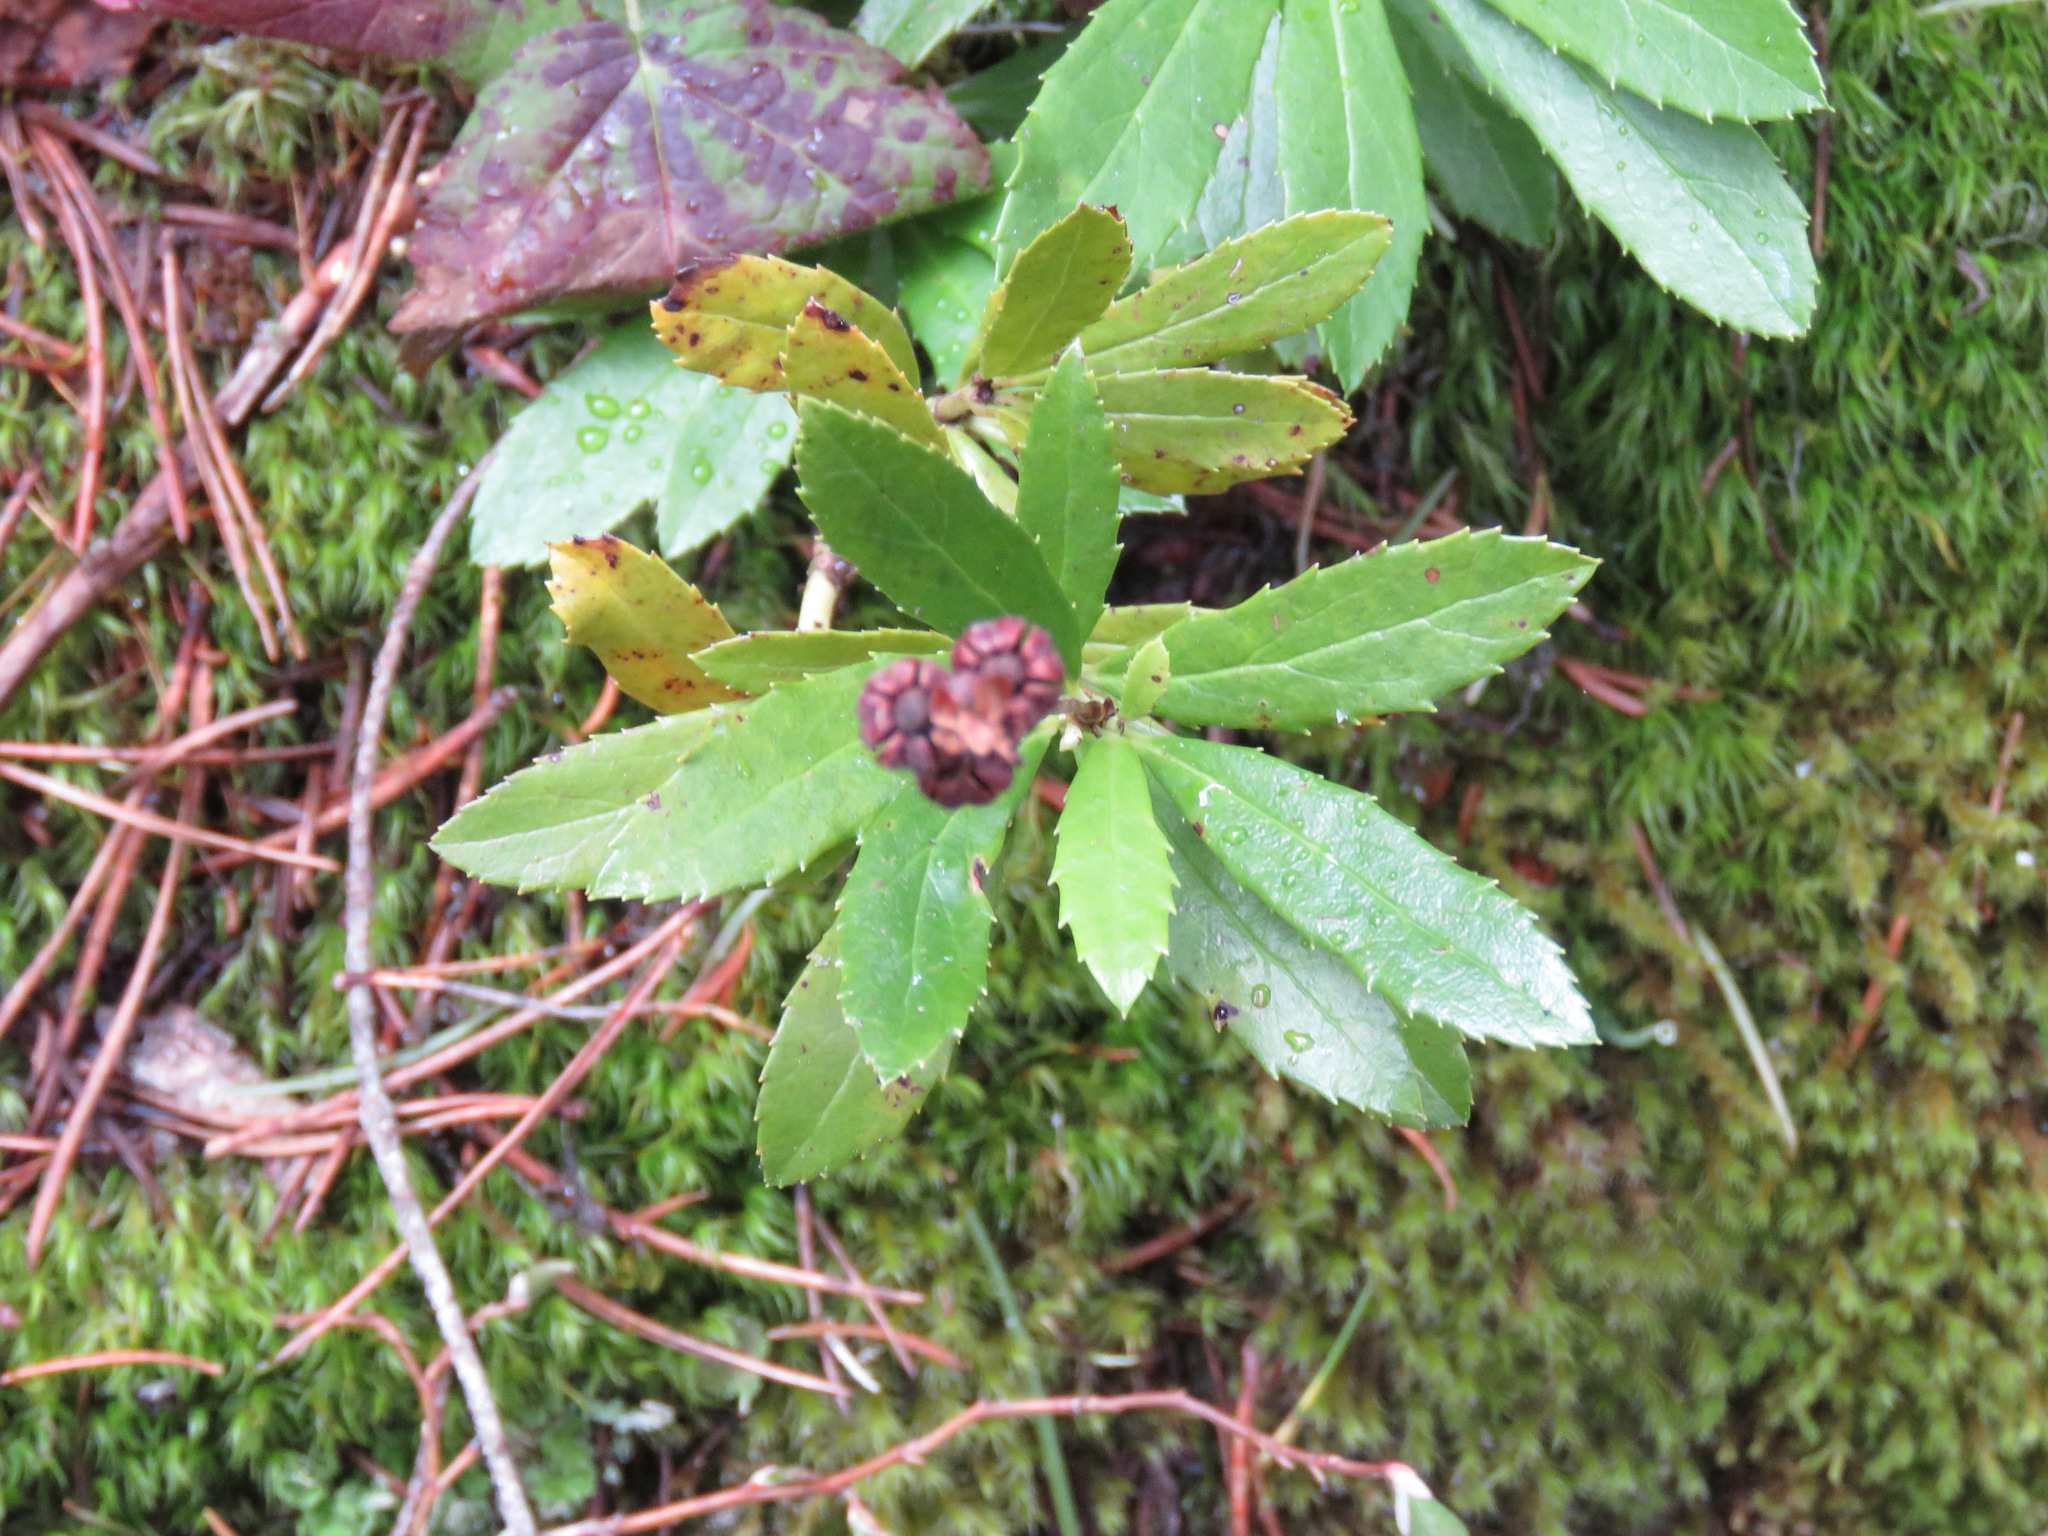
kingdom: Plantae
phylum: Tracheophyta
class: Magnoliopsida
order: Ericales
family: Ericaceae
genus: Chimaphila
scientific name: Chimaphila umbellata
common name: Pipsissewa
